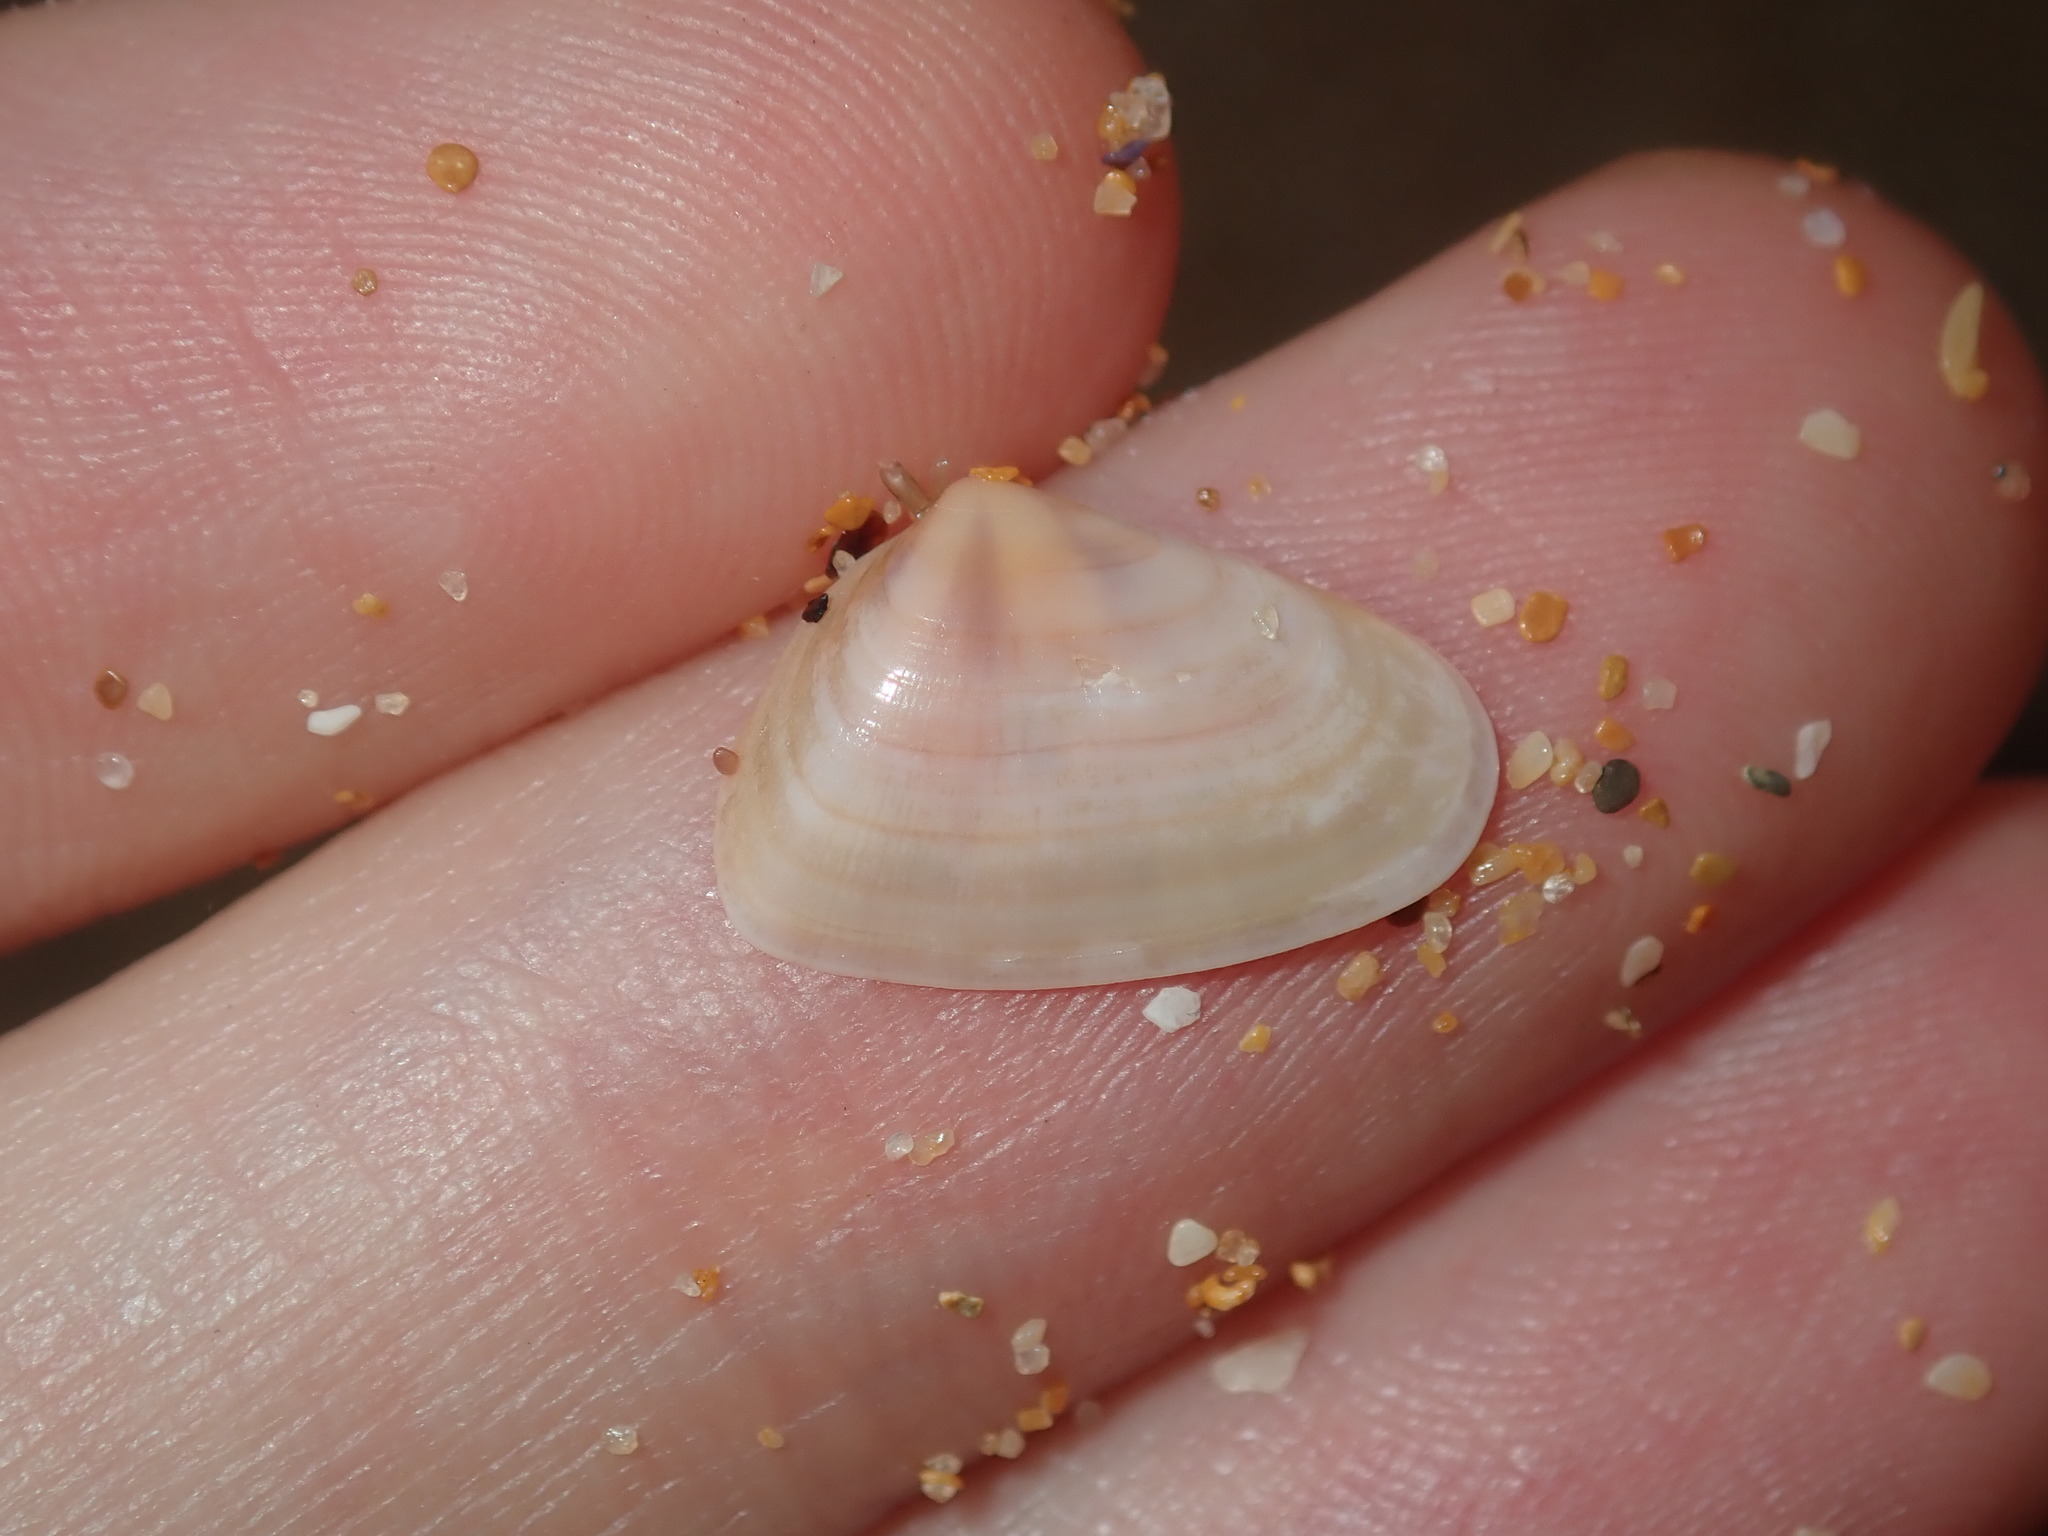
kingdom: Animalia
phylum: Mollusca
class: Bivalvia
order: Cardiida
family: Donacidae
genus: Latona
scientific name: Latona deltoides
